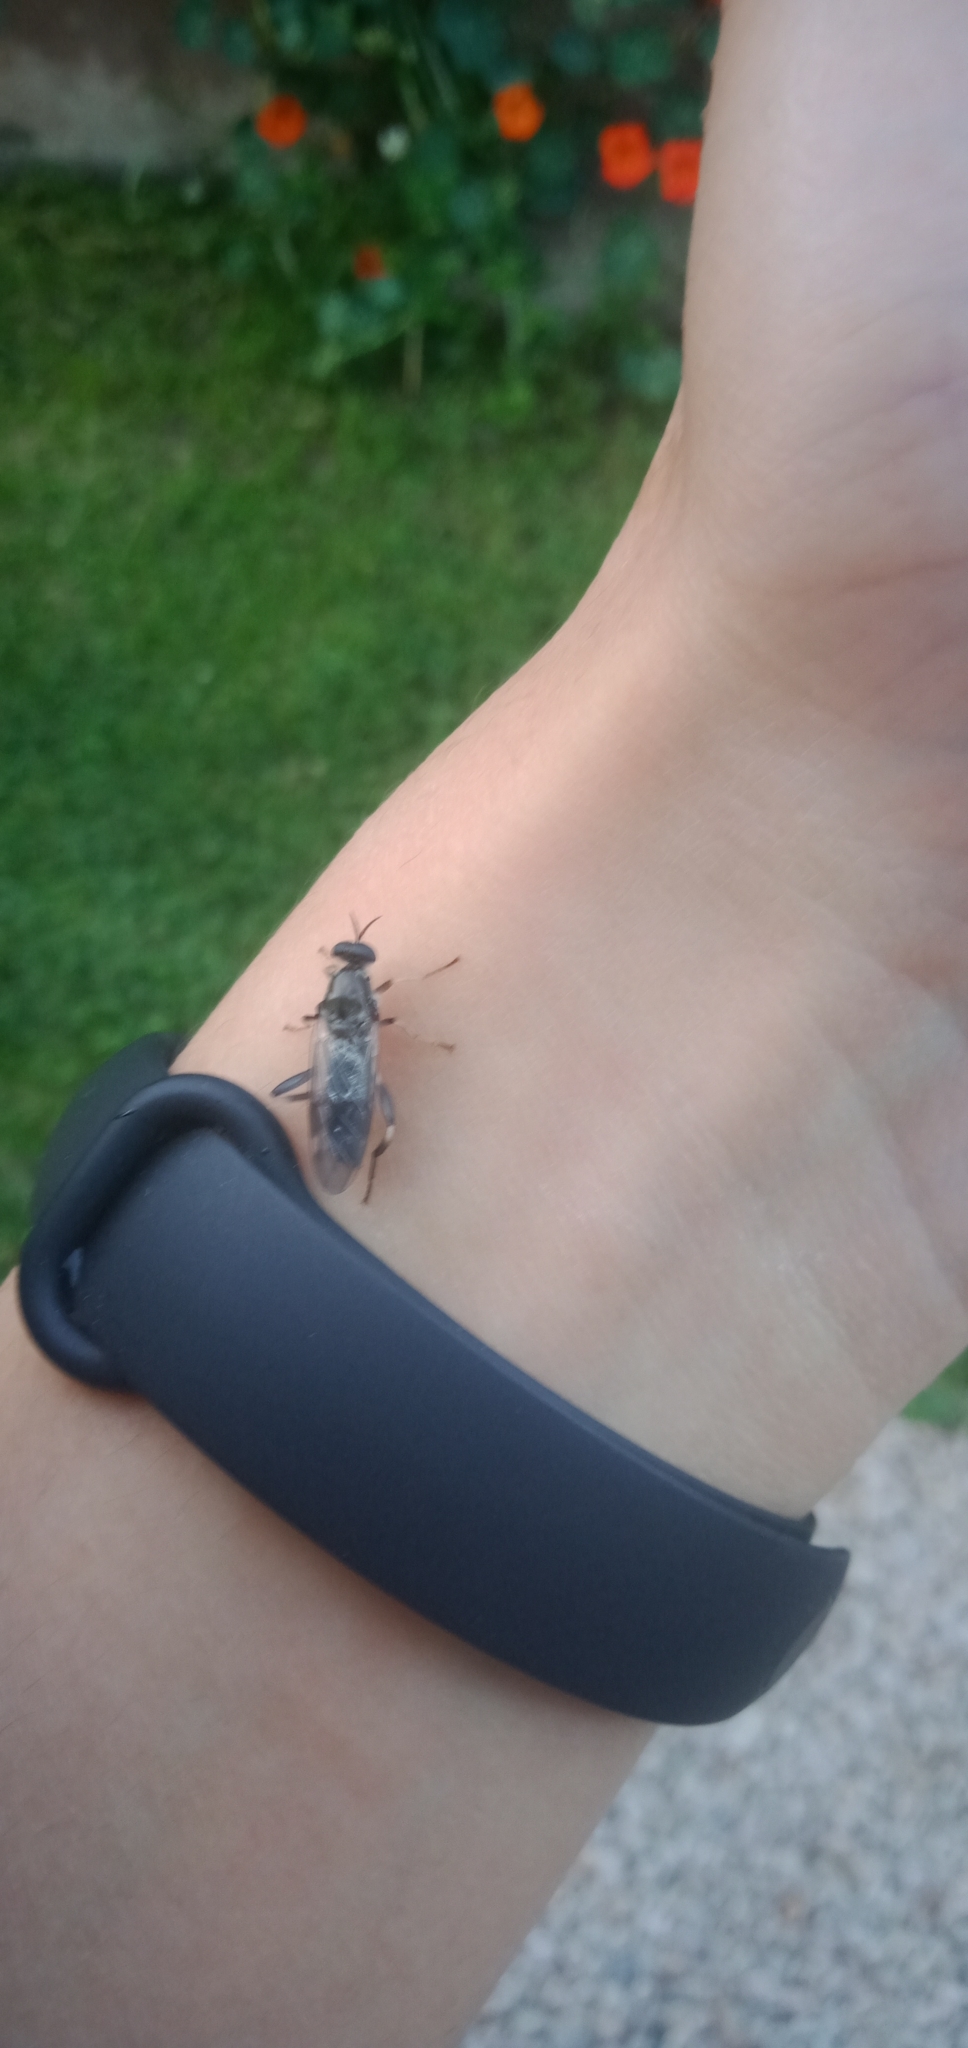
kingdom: Animalia
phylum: Arthropoda
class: Insecta
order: Diptera
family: Stratiomyidae
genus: Exaireta
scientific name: Exaireta spinigera
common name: Blue soldier fly
